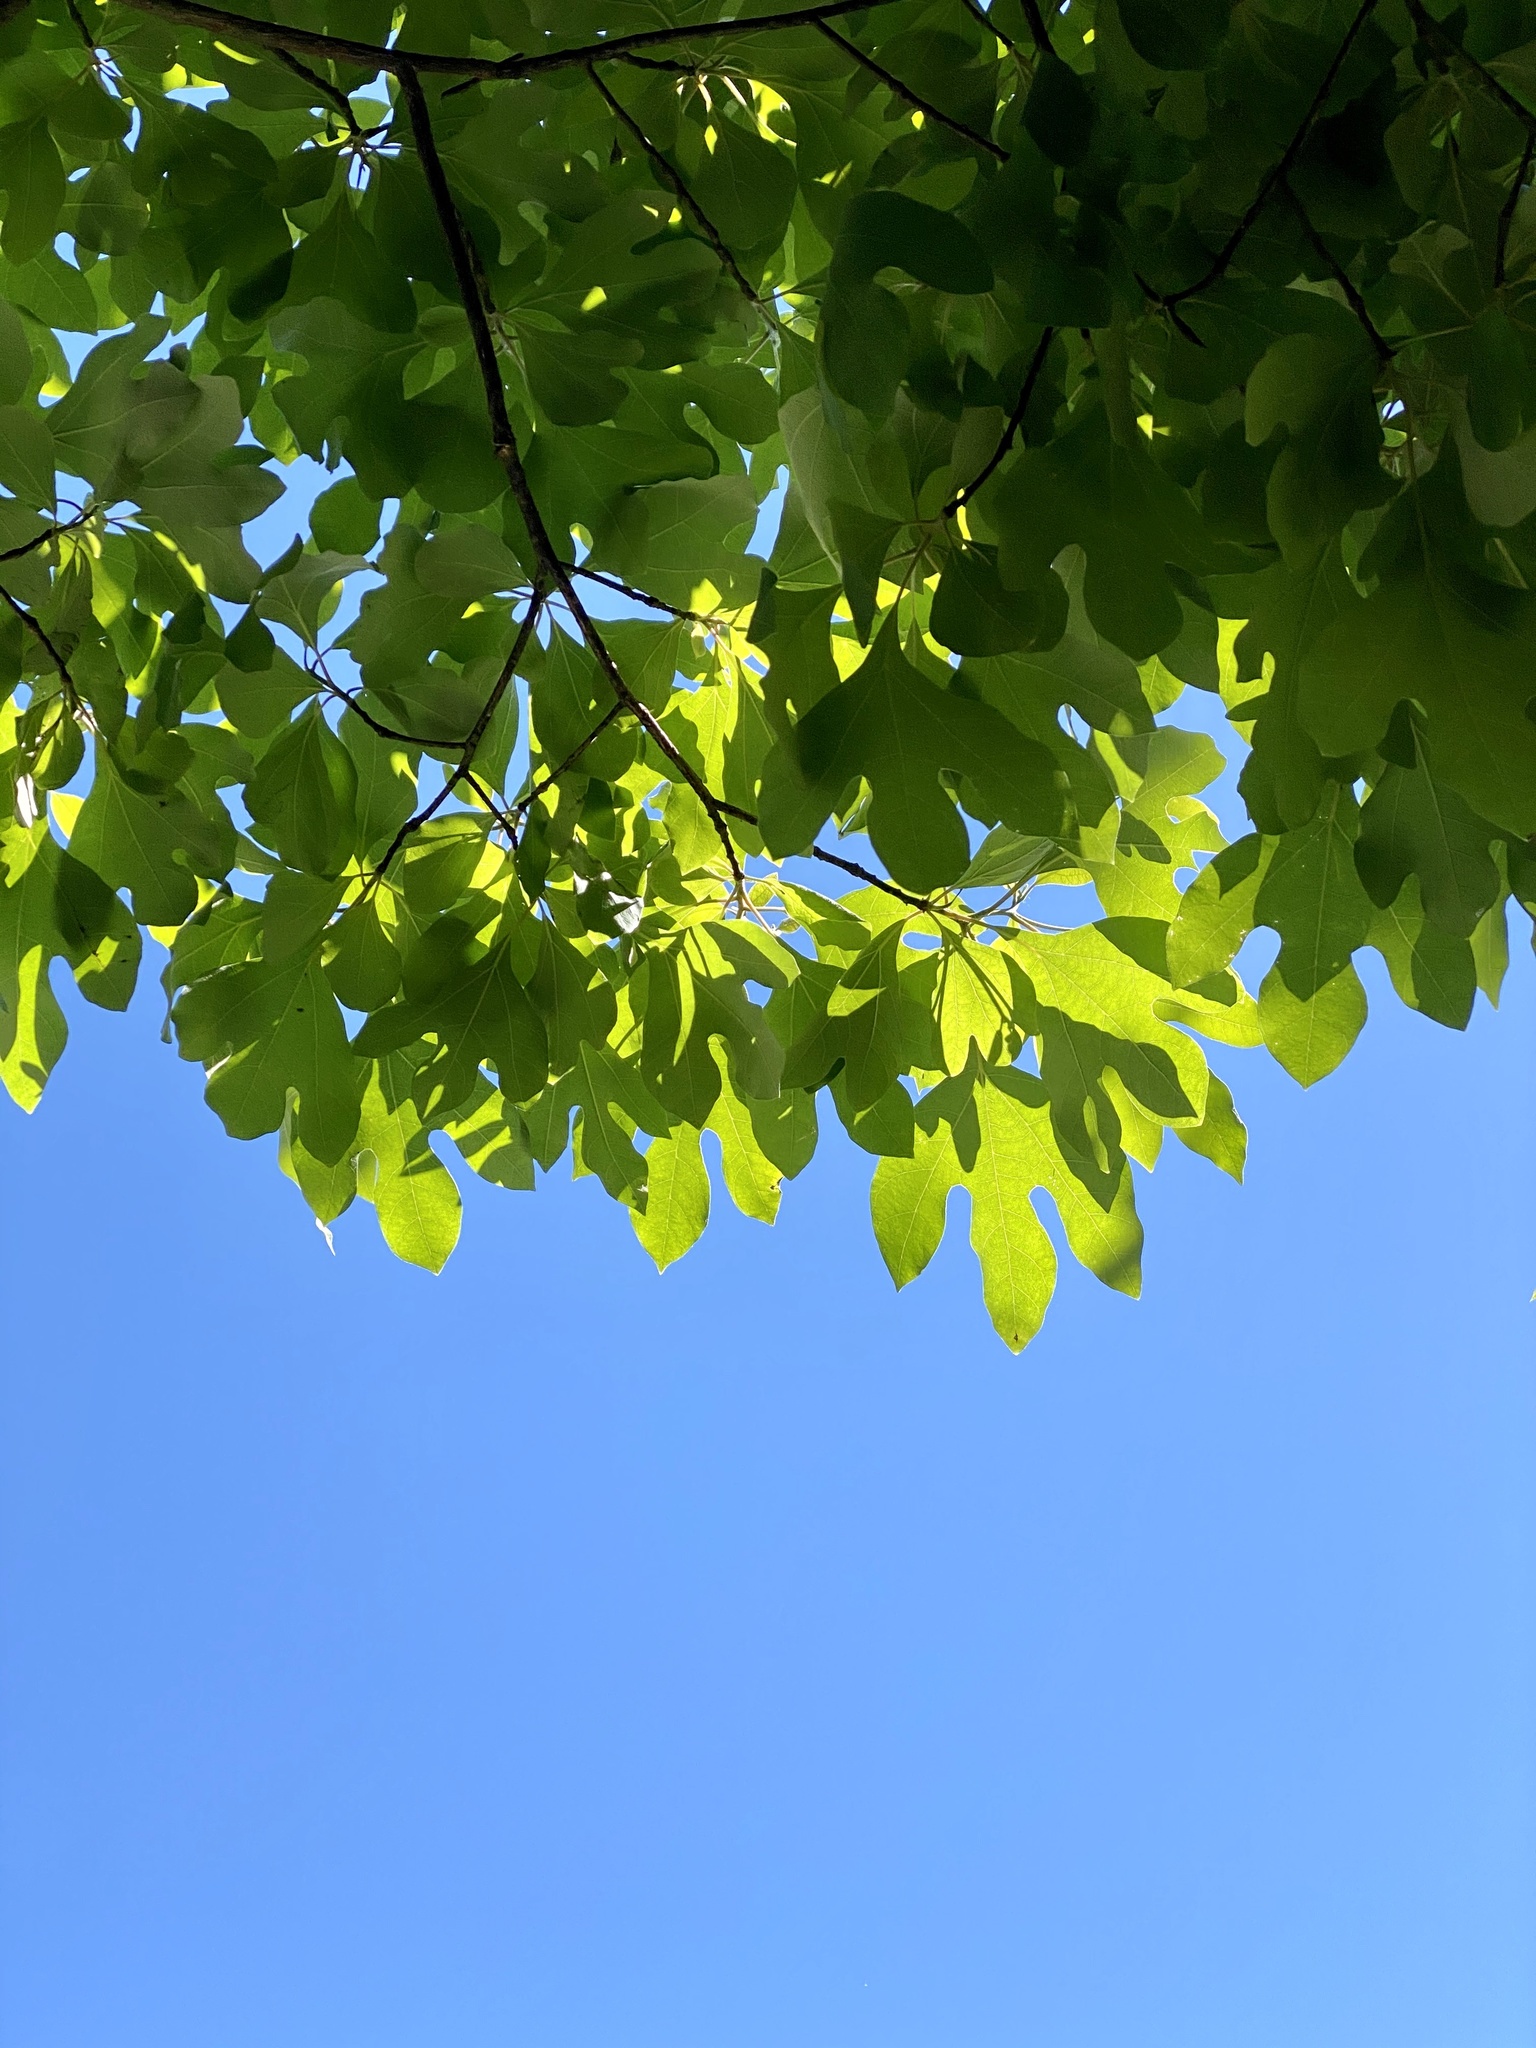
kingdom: Plantae
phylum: Tracheophyta
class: Magnoliopsida
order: Laurales
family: Lauraceae
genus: Sassafras
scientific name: Sassafras albidum
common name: Sassafras
